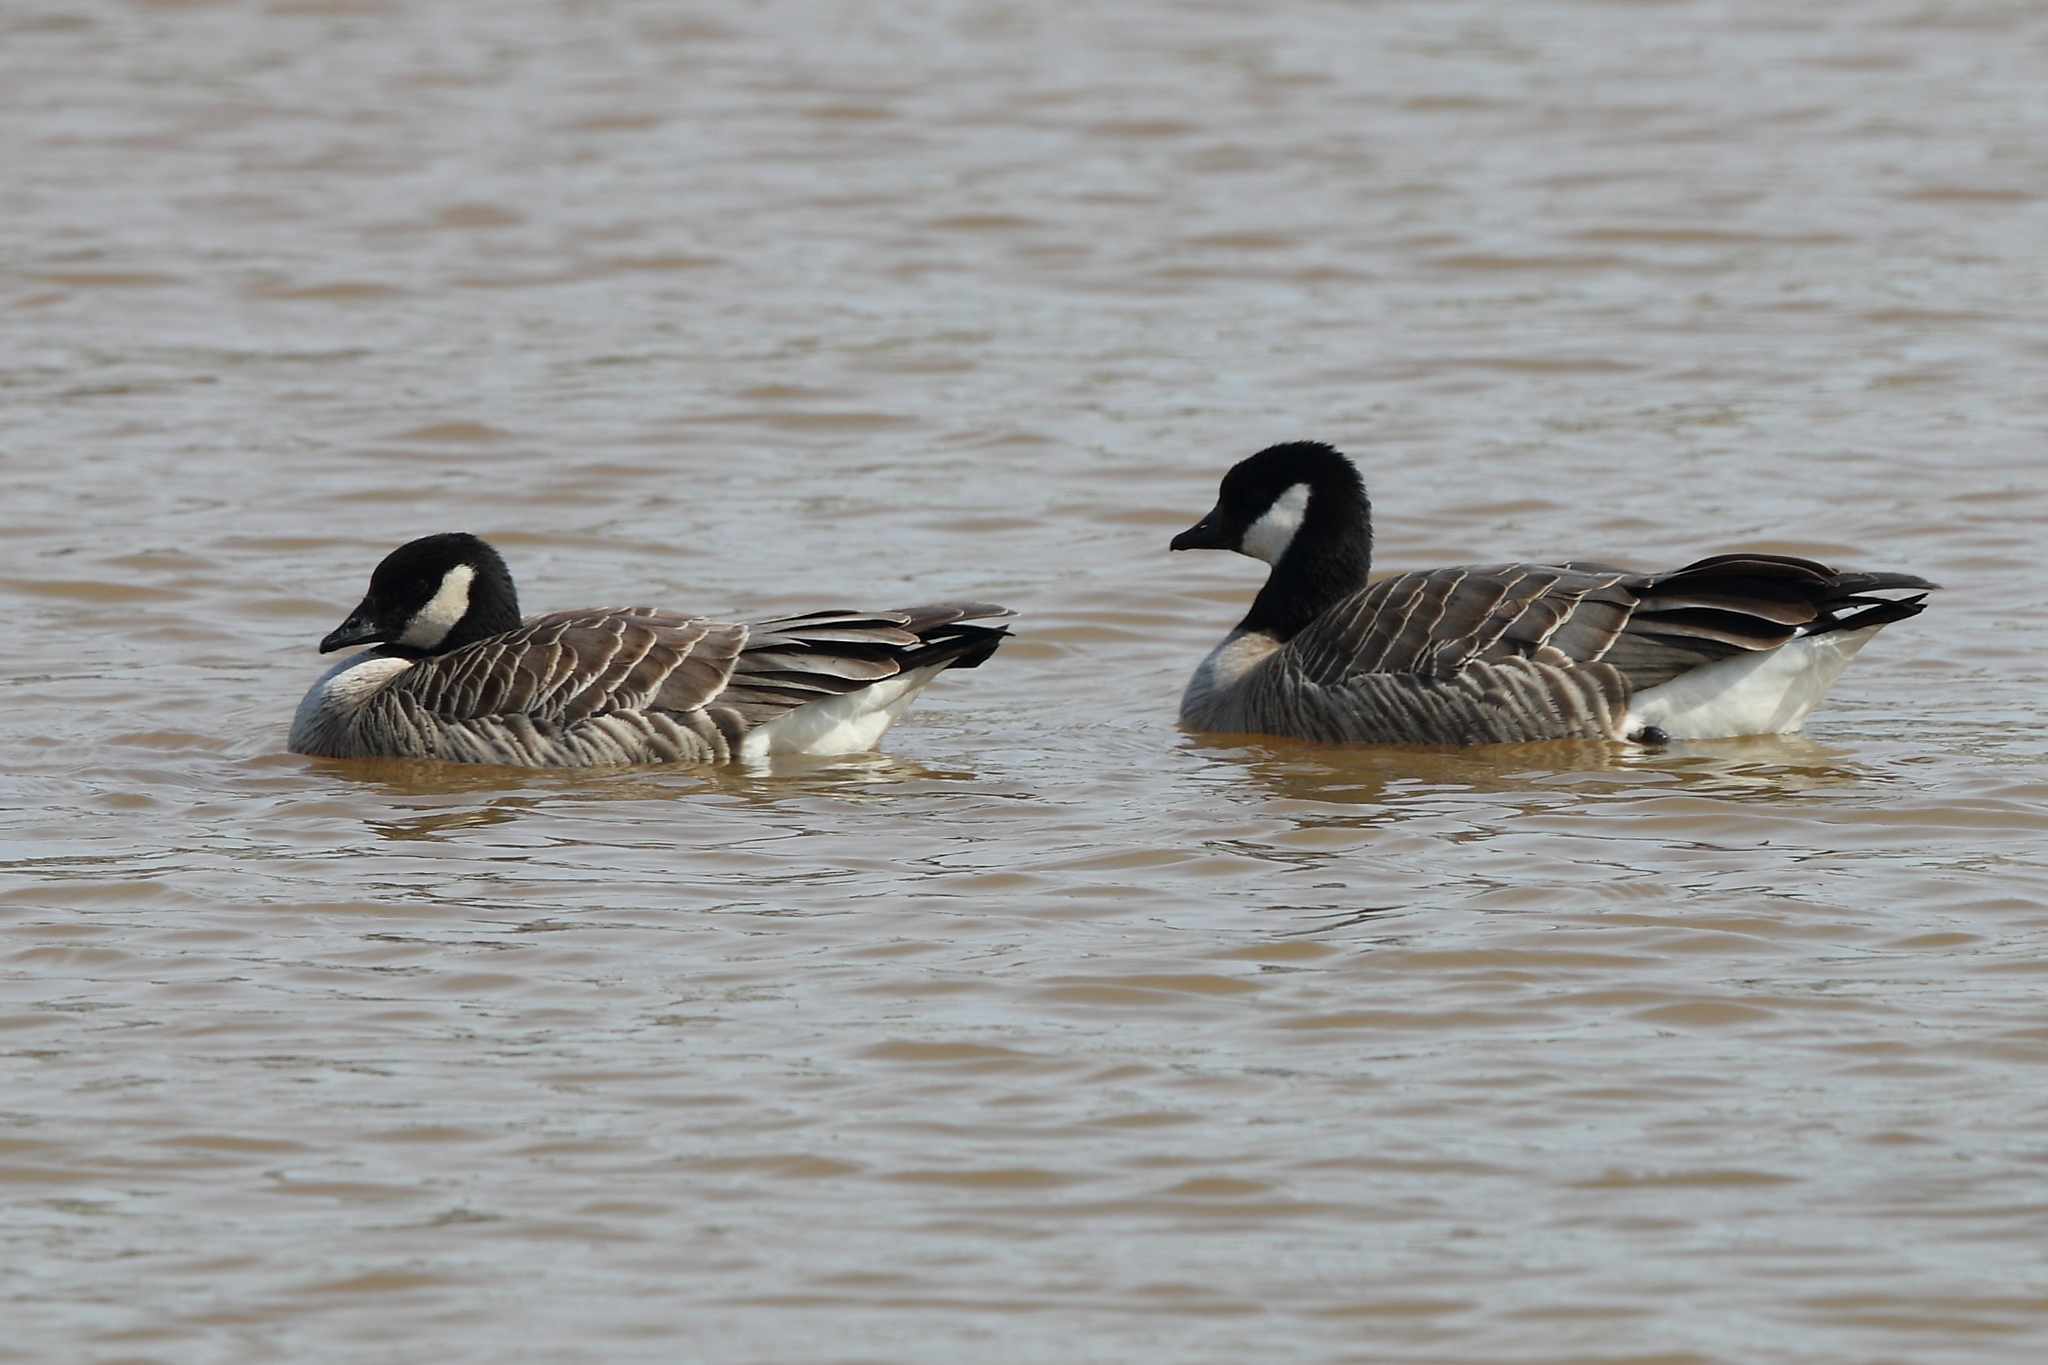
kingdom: Animalia
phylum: Chordata
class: Aves
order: Anseriformes
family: Anatidae
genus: Branta
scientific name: Branta hutchinsii
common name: Cackling goose
